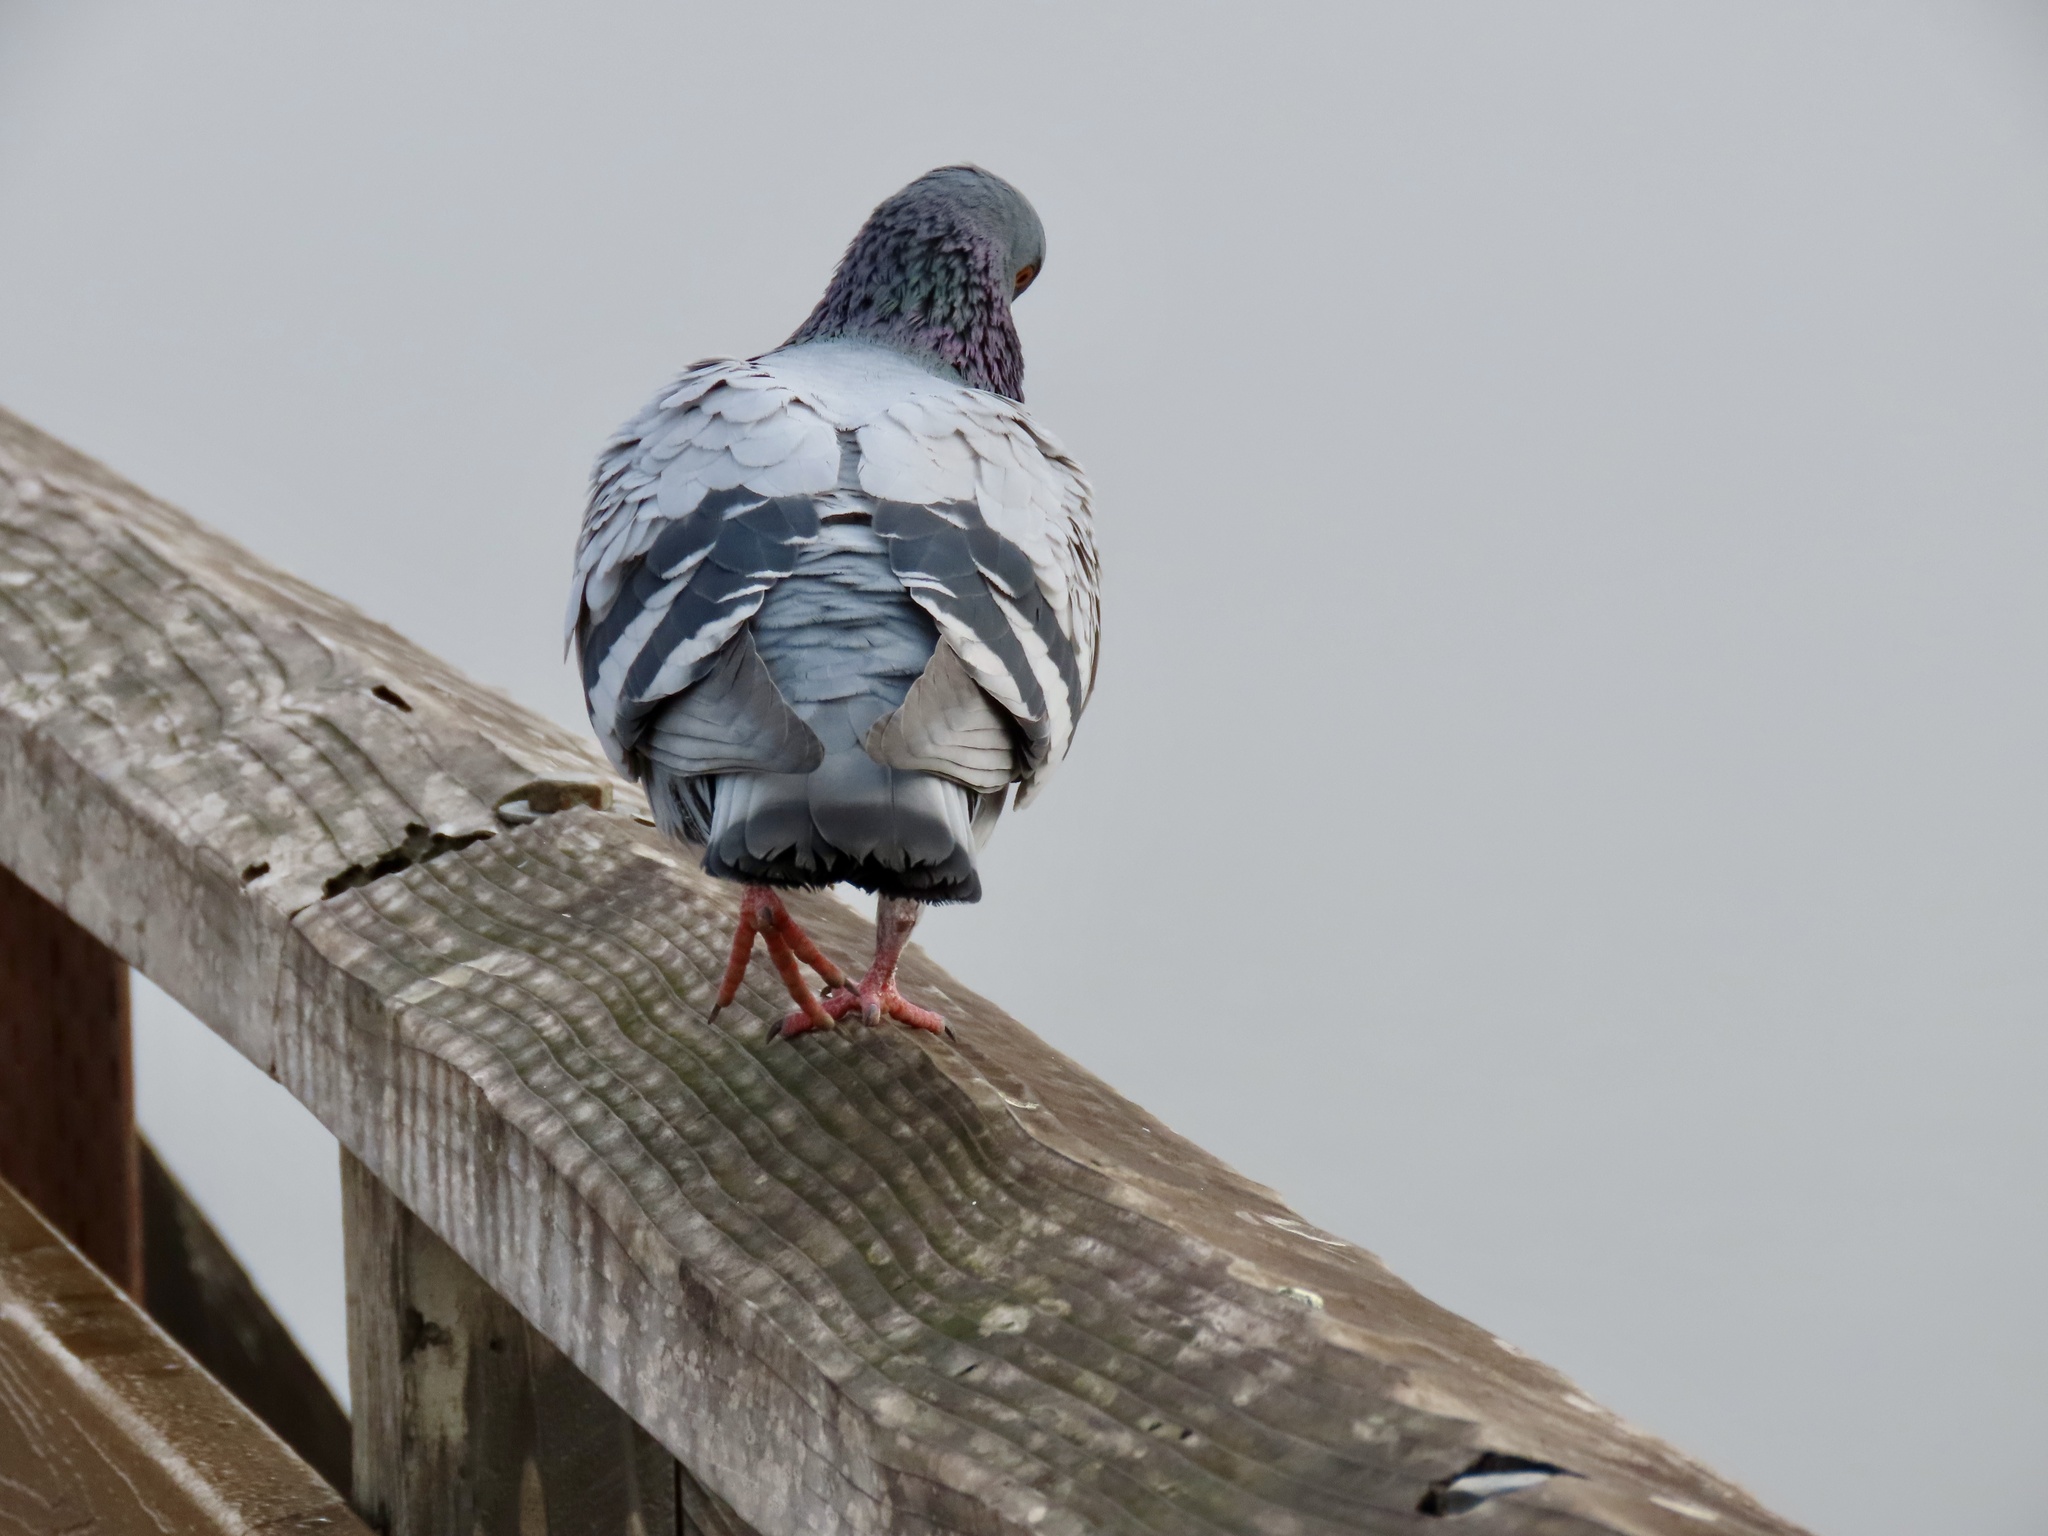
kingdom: Animalia
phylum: Chordata
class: Aves
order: Columbiformes
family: Columbidae
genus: Columba
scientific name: Columba livia
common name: Rock pigeon
